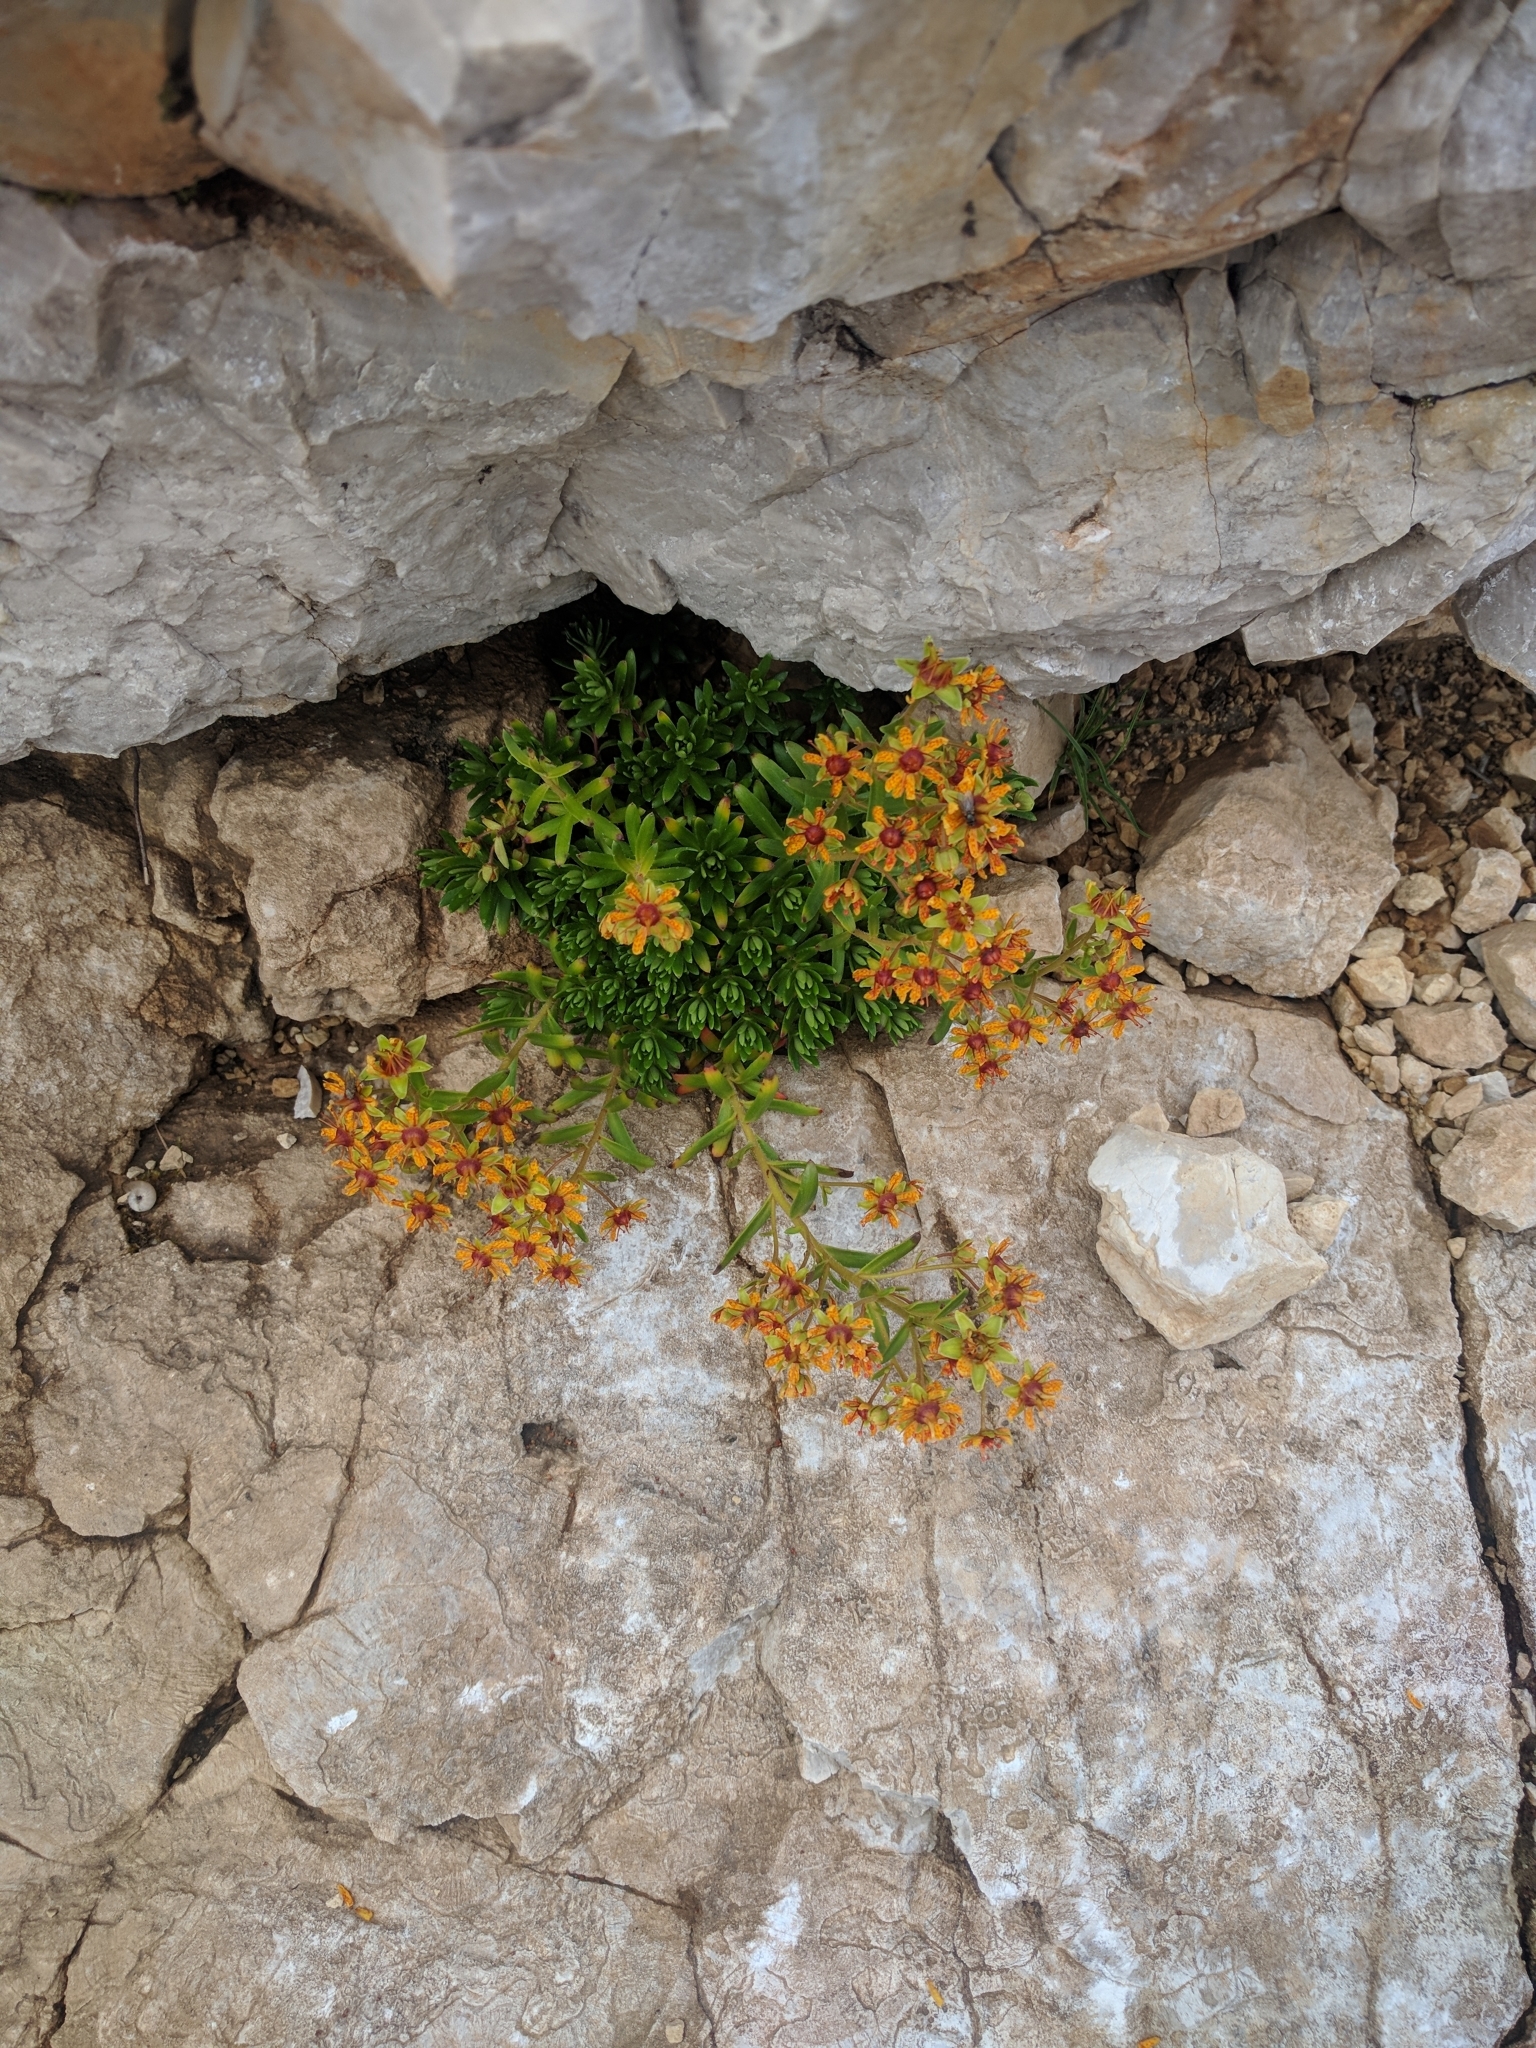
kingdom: Plantae
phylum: Tracheophyta
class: Magnoliopsida
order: Saxifragales
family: Saxifragaceae
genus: Saxifraga
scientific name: Saxifraga aizoides
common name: Yellow mountain saxifrage
